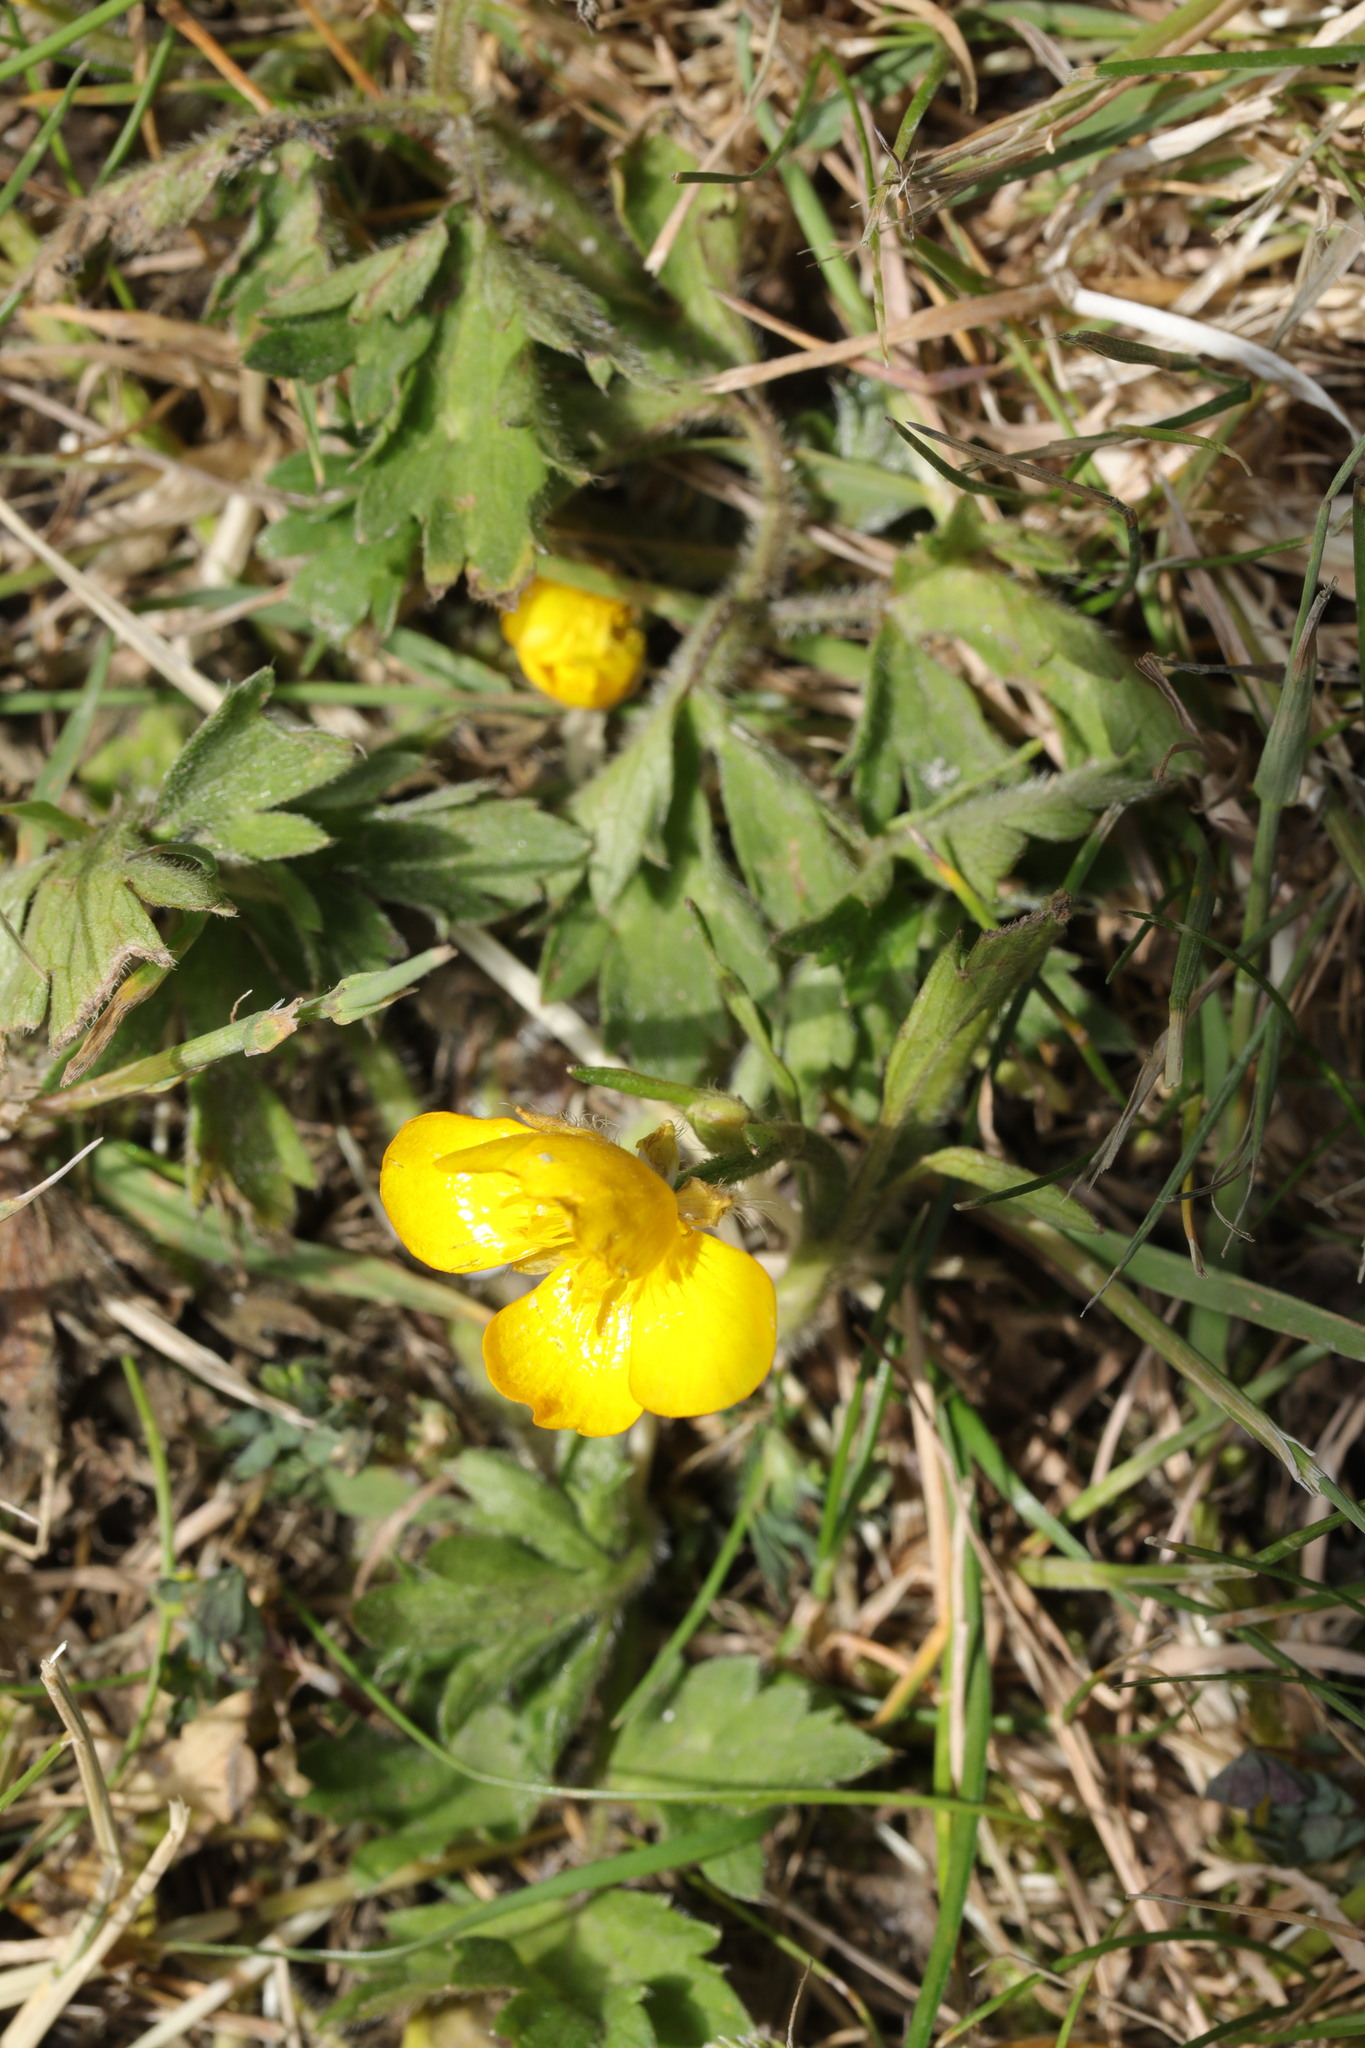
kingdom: Plantae
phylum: Tracheophyta
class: Magnoliopsida
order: Ranunculales
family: Ranunculaceae
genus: Ranunculus
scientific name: Ranunculus repens
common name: Creeping buttercup
